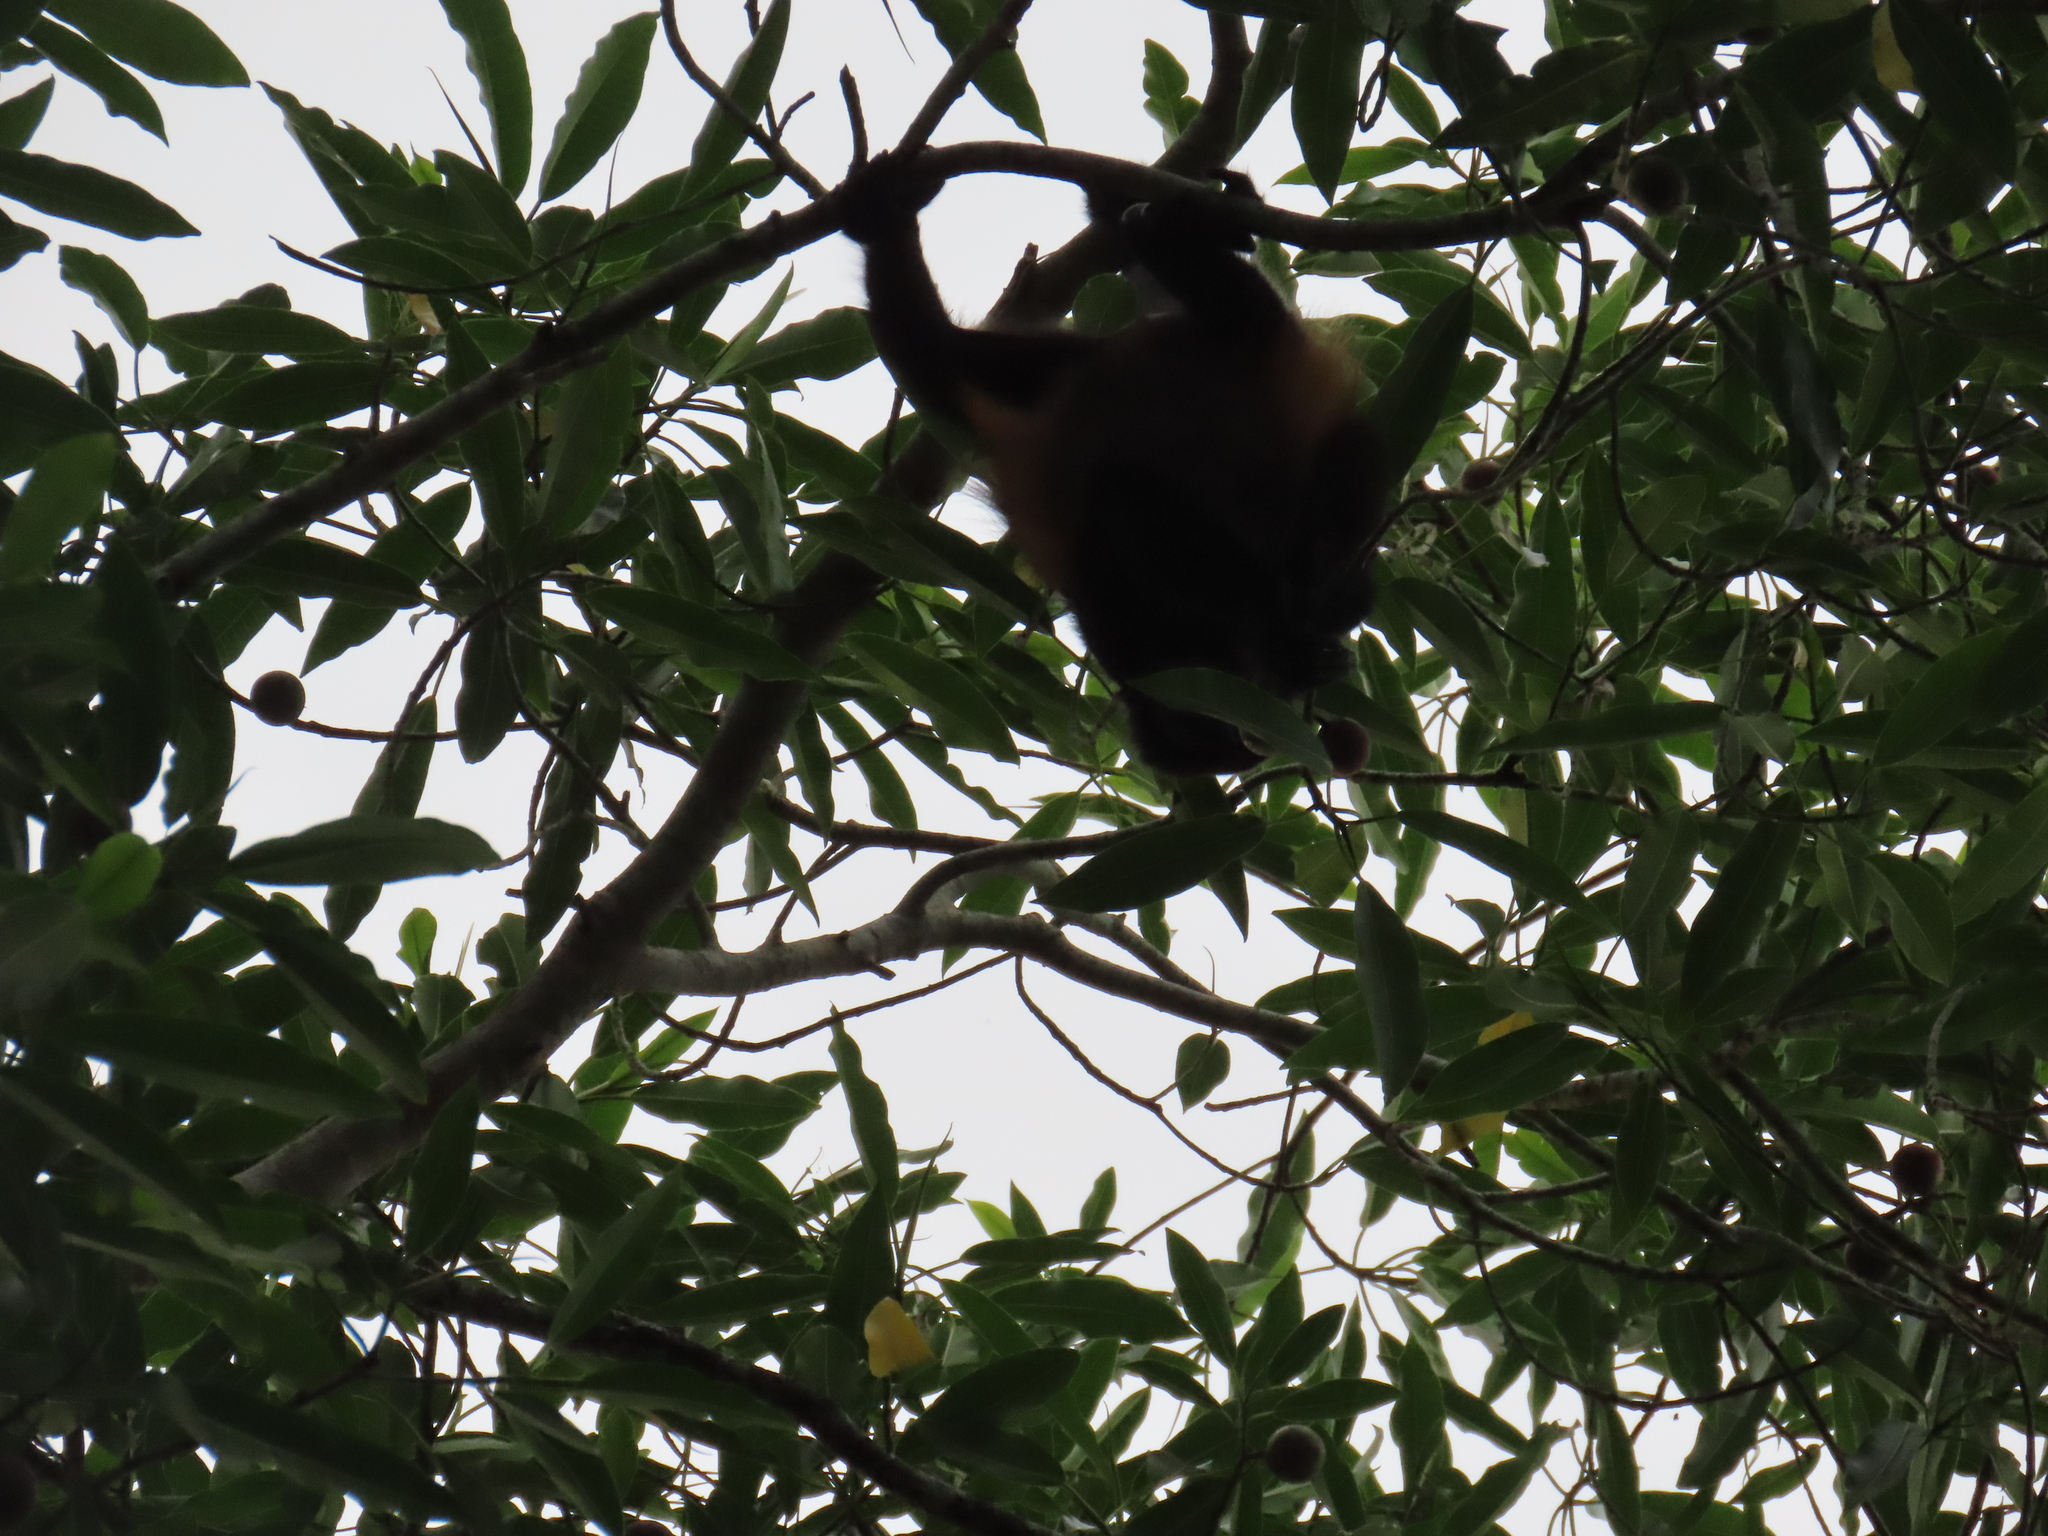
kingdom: Animalia
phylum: Chordata
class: Mammalia
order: Primates
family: Atelidae
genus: Alouatta
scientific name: Alouatta palliata
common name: Mantled howler
